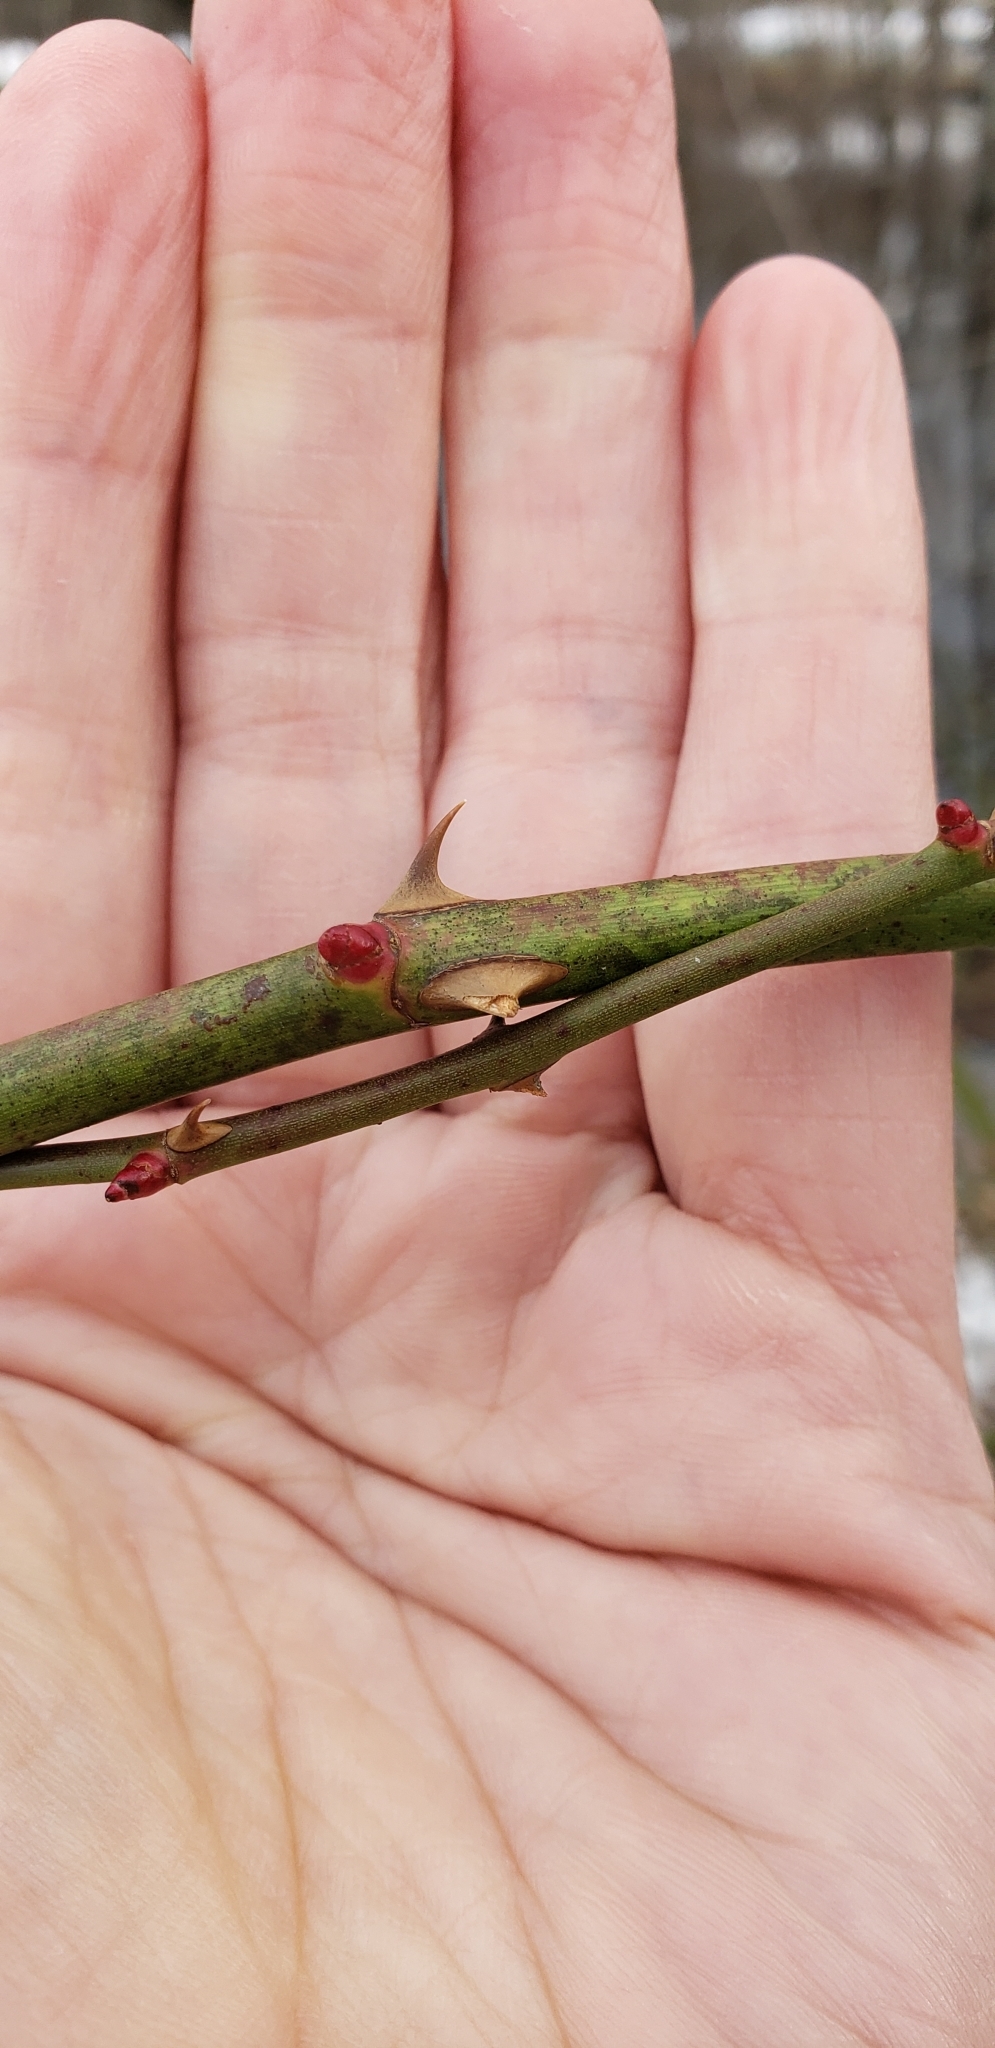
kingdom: Plantae
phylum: Tracheophyta
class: Magnoliopsida
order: Rosales
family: Rosaceae
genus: Rosa
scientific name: Rosa multiflora
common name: Multiflora rose
